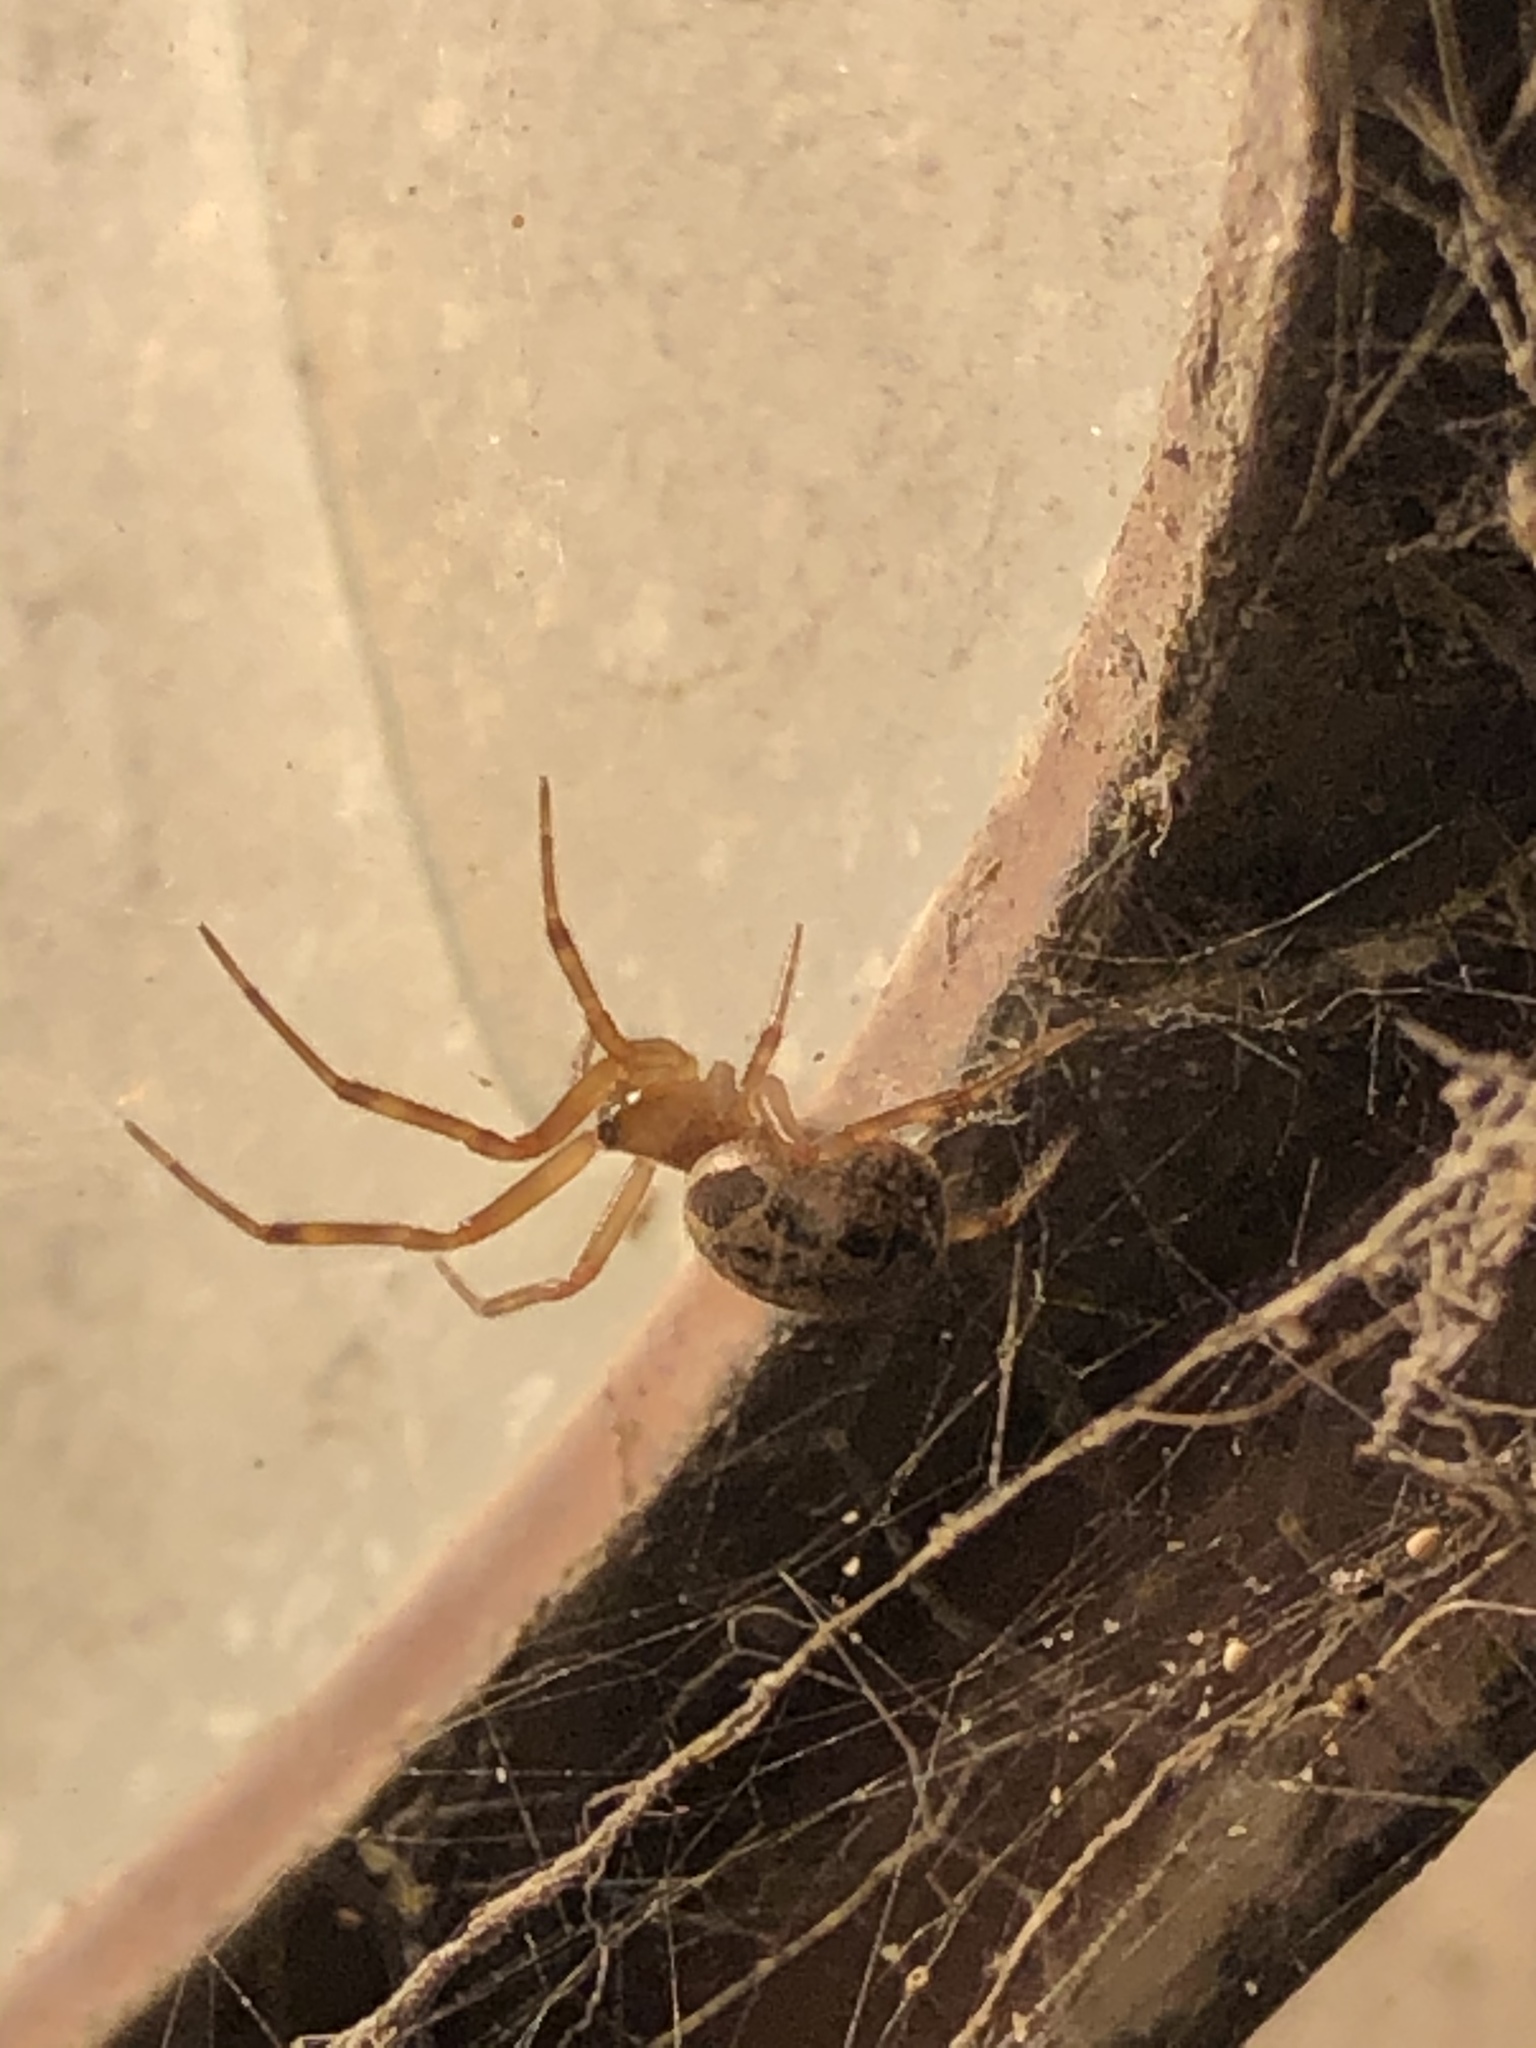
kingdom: Animalia
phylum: Arthropoda
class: Arachnida
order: Araneae
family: Theridiidae
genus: Steatoda
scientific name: Steatoda nobilis
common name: Cobweb weaver
